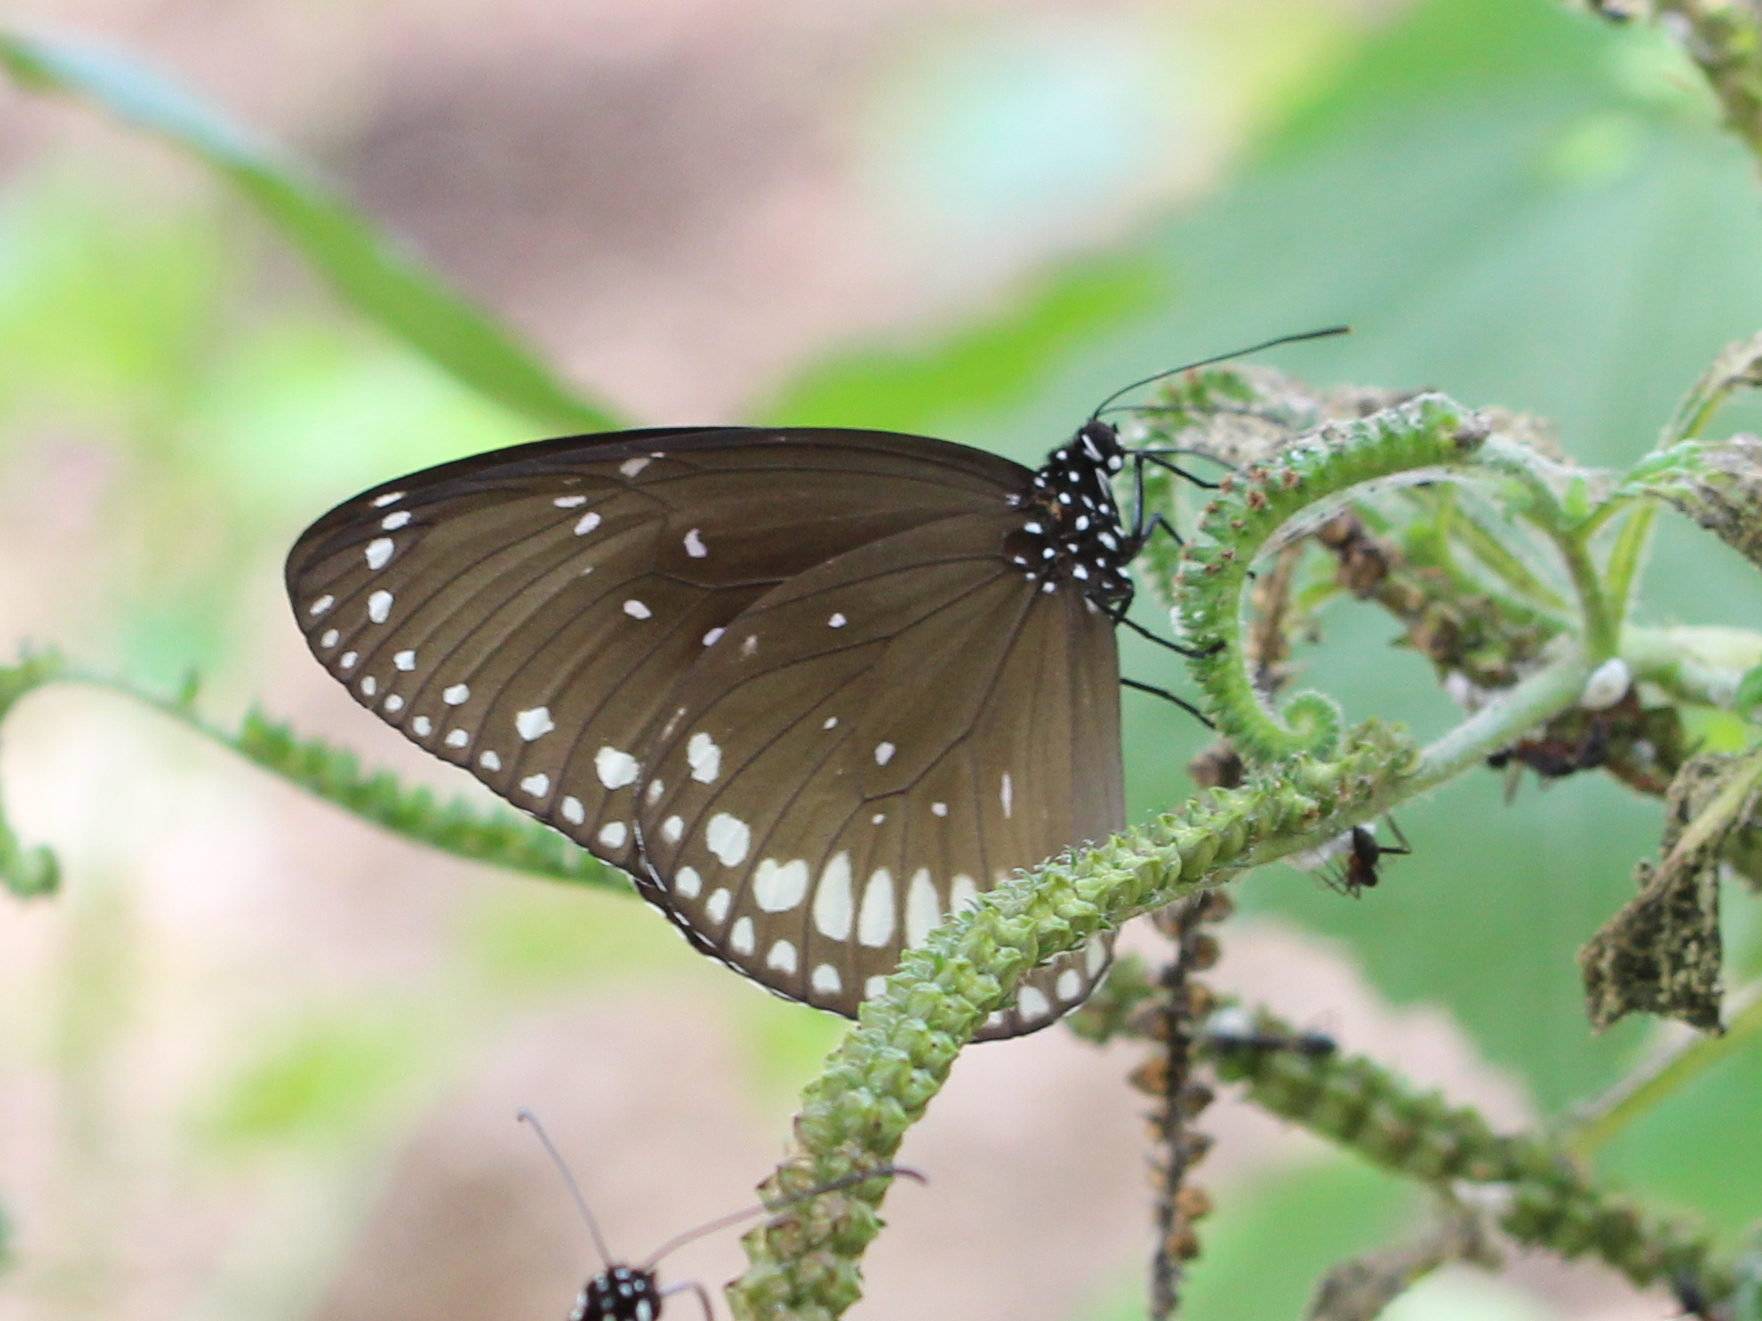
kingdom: Animalia
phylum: Arthropoda
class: Insecta
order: Lepidoptera
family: Nymphalidae
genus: Euploea
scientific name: Euploea sylvester
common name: Double-branded crow butterfly
